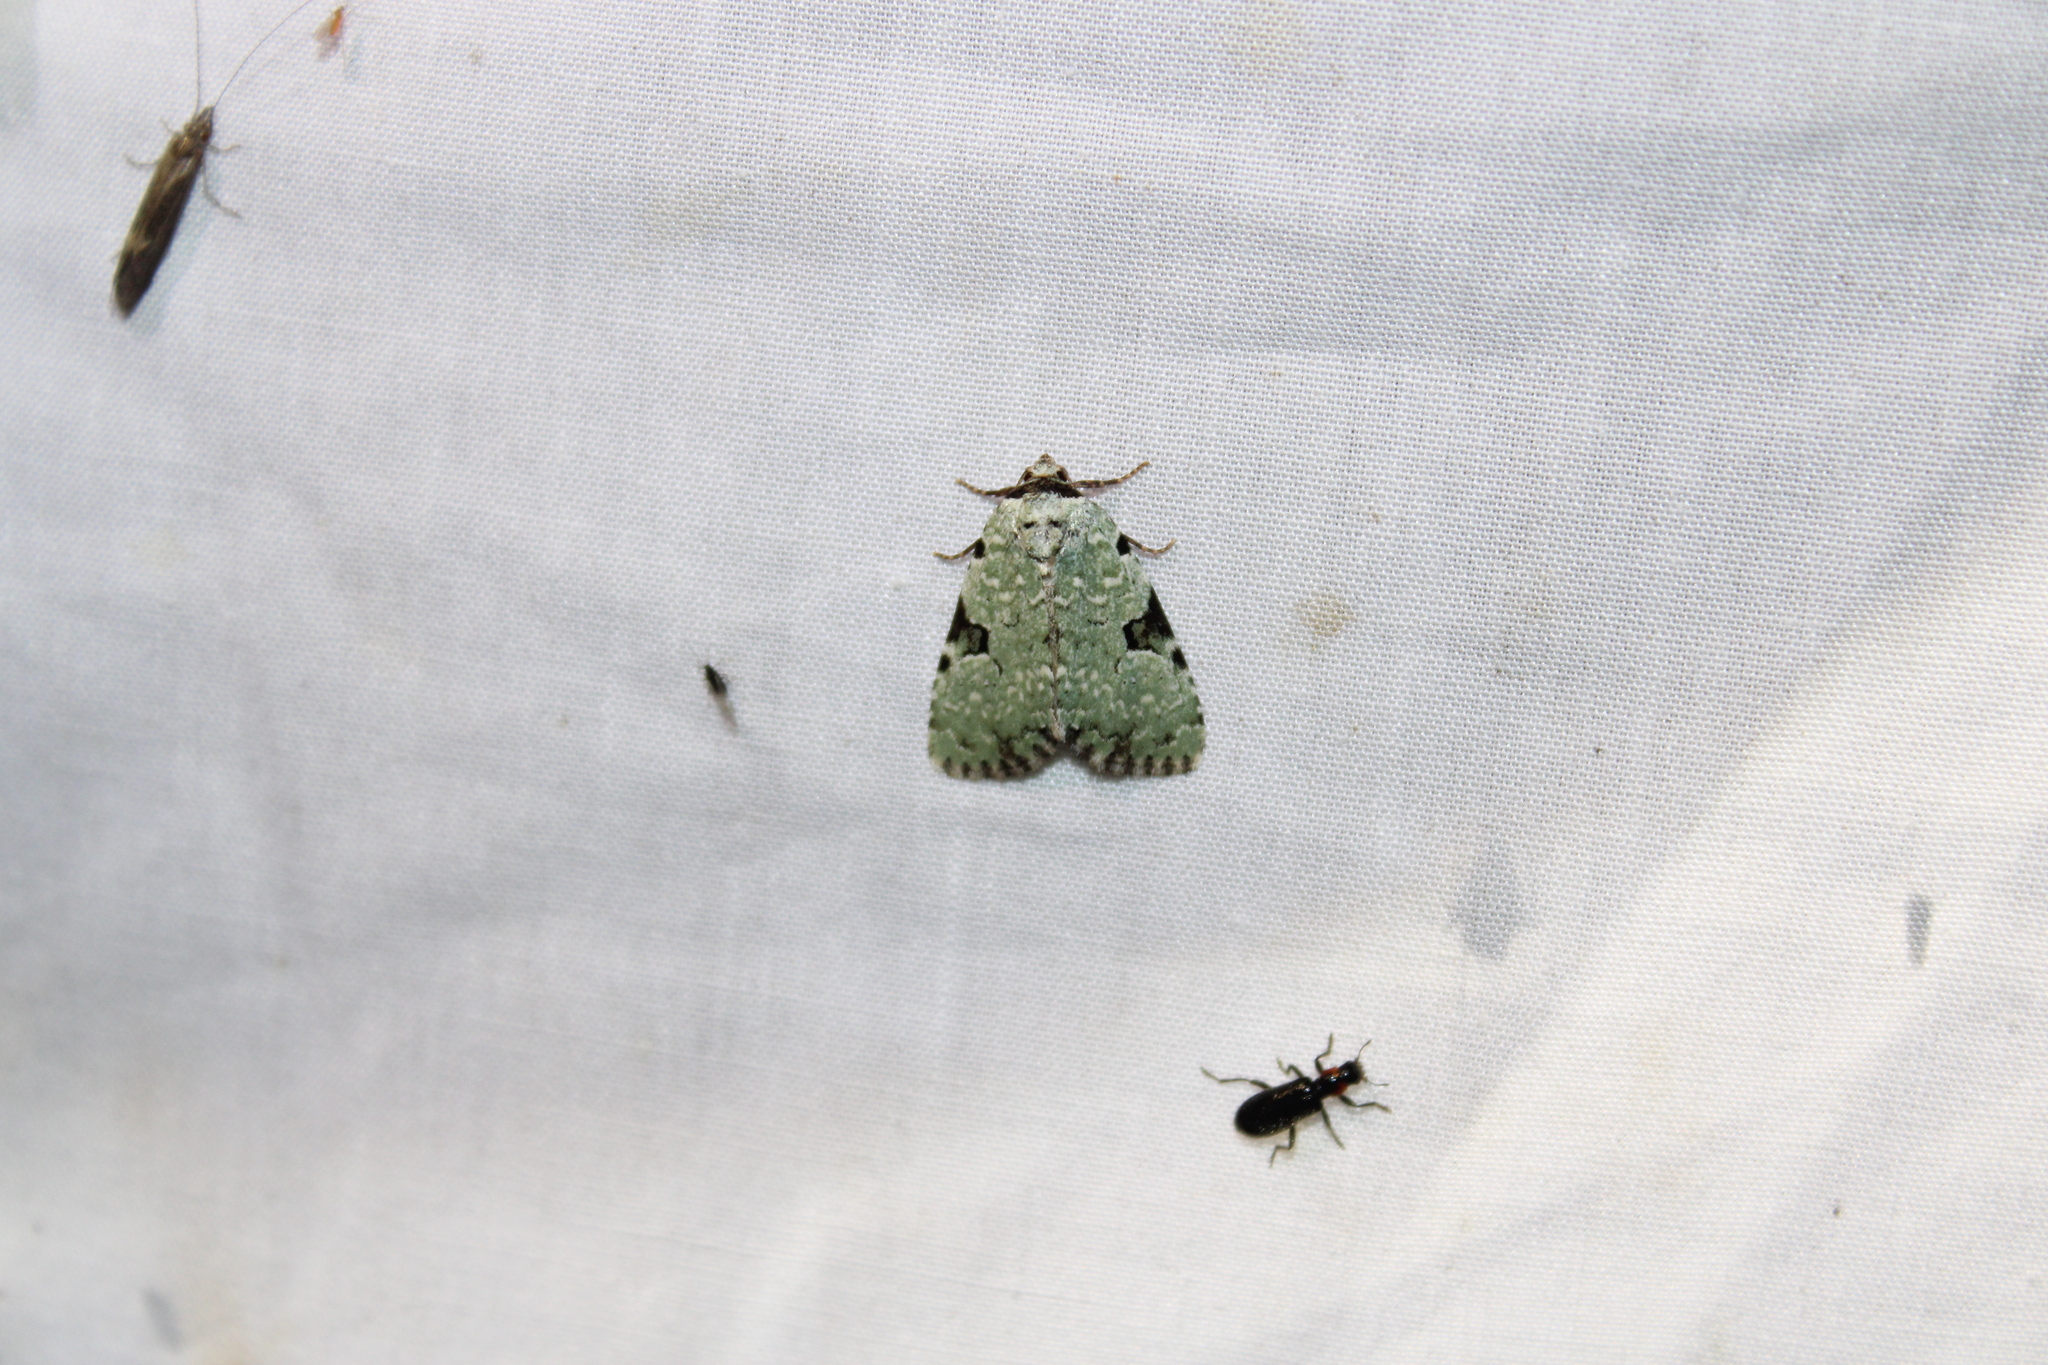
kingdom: Animalia
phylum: Arthropoda
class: Insecta
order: Lepidoptera
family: Noctuidae
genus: Leuconycta
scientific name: Leuconycta diphteroides
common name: Green leuconycta moth
